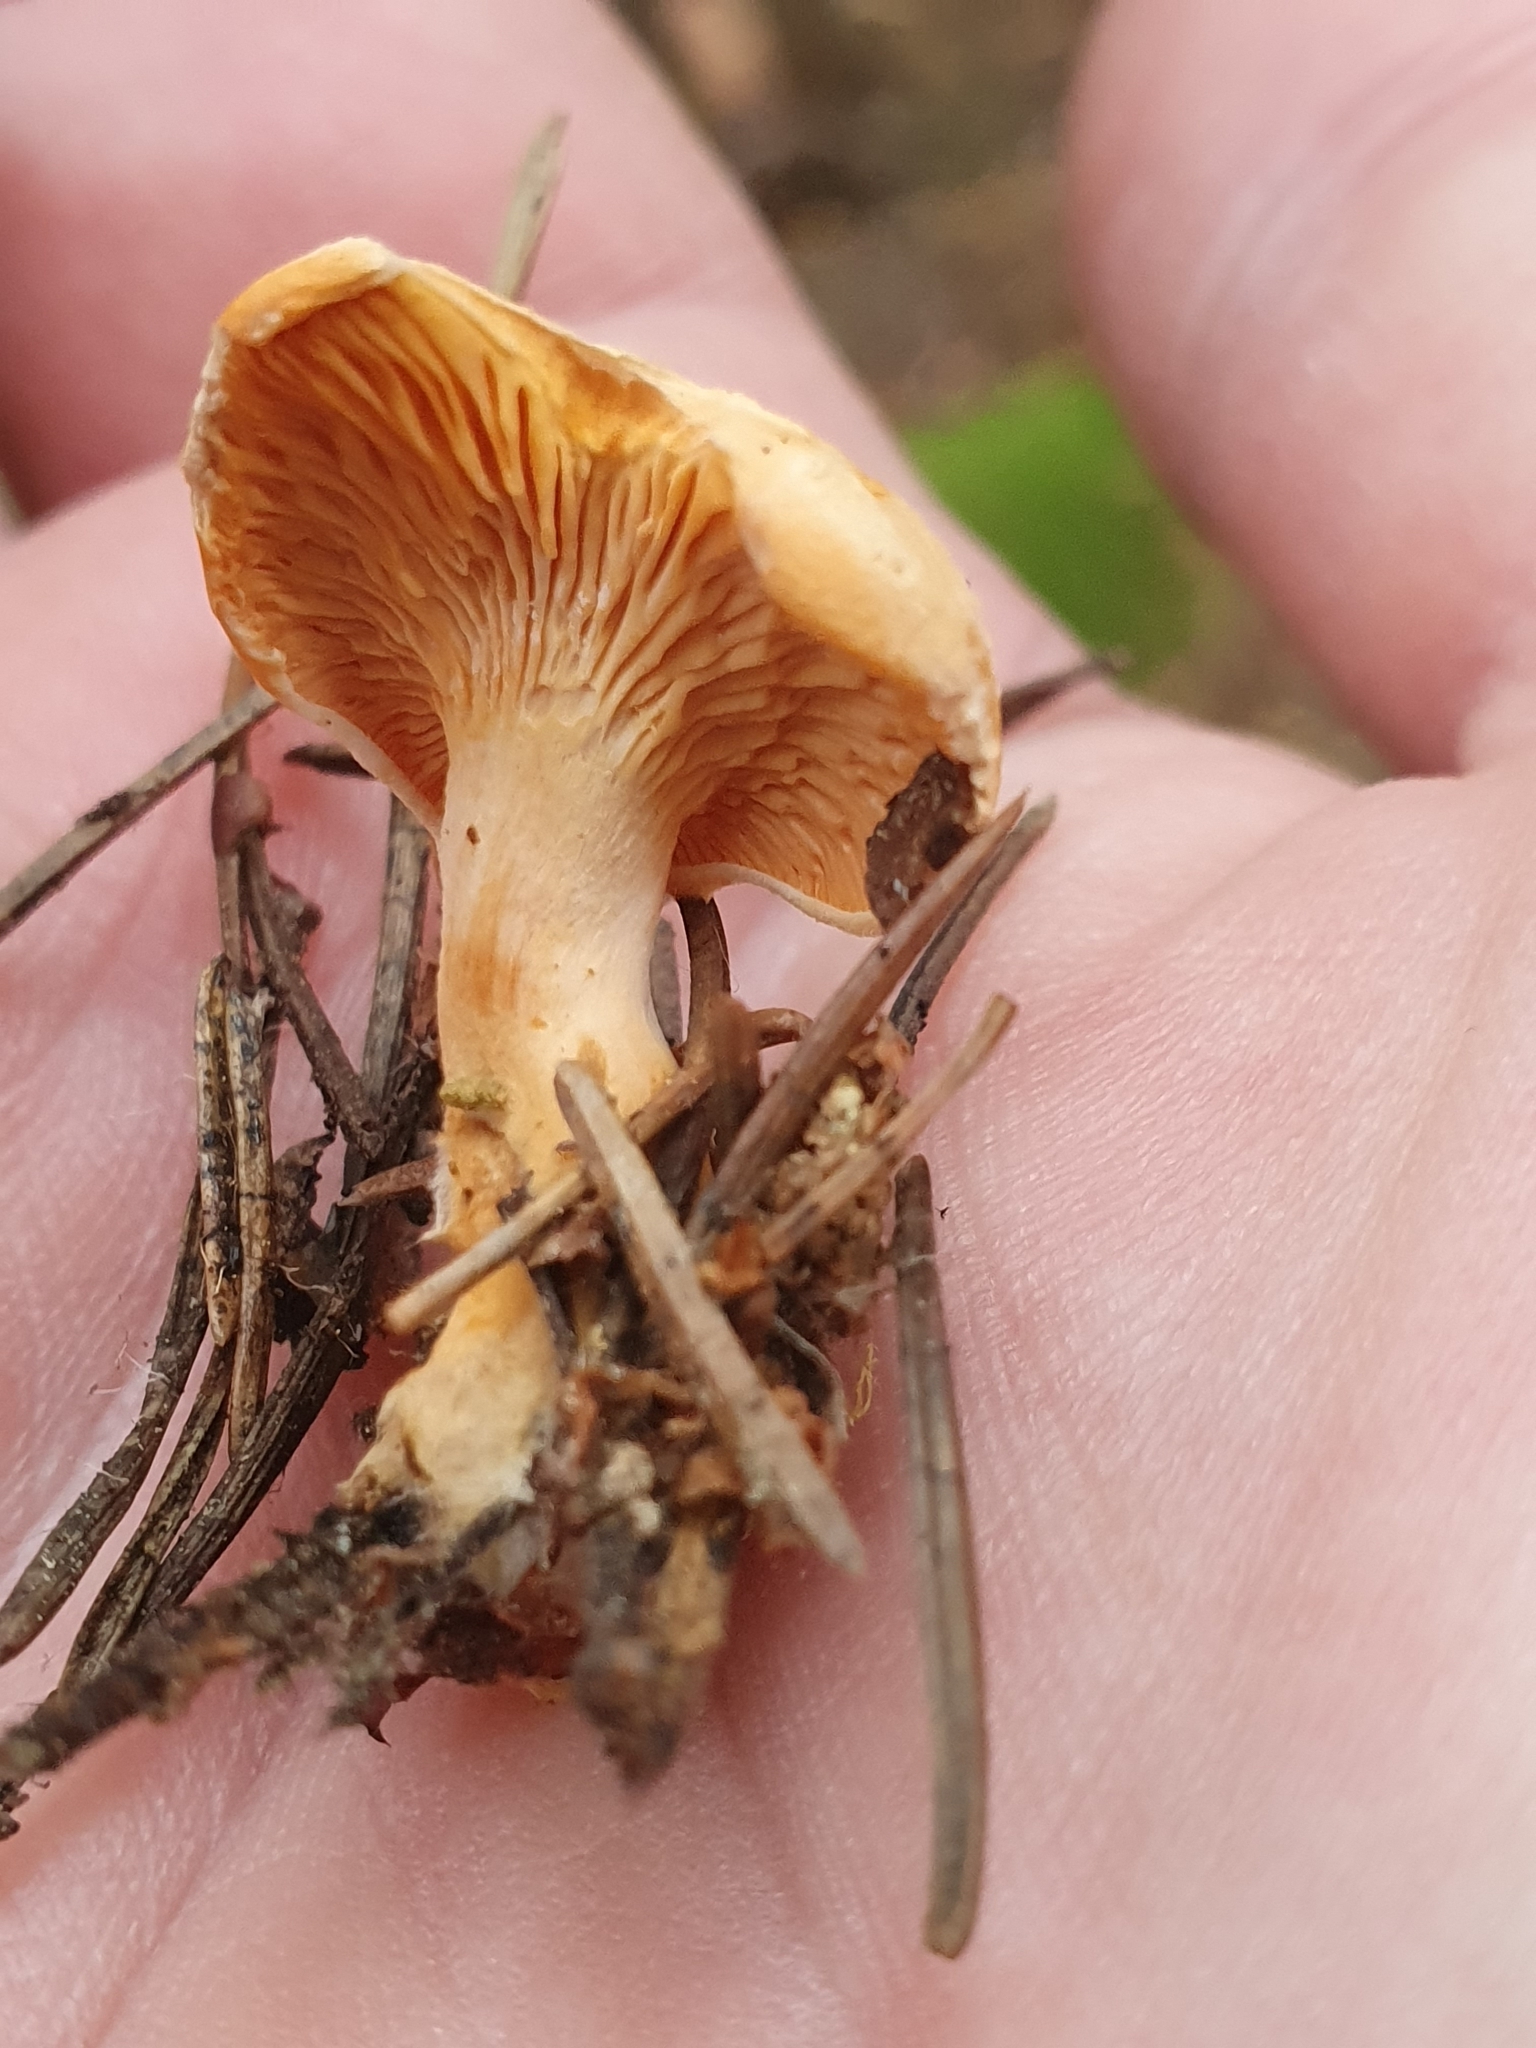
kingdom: Fungi
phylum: Basidiomycota
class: Agaricomycetes
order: Boletales
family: Hygrophoropsidaceae
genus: Hygrophoropsis
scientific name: Hygrophoropsis aurantiaca
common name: False chanterelle
